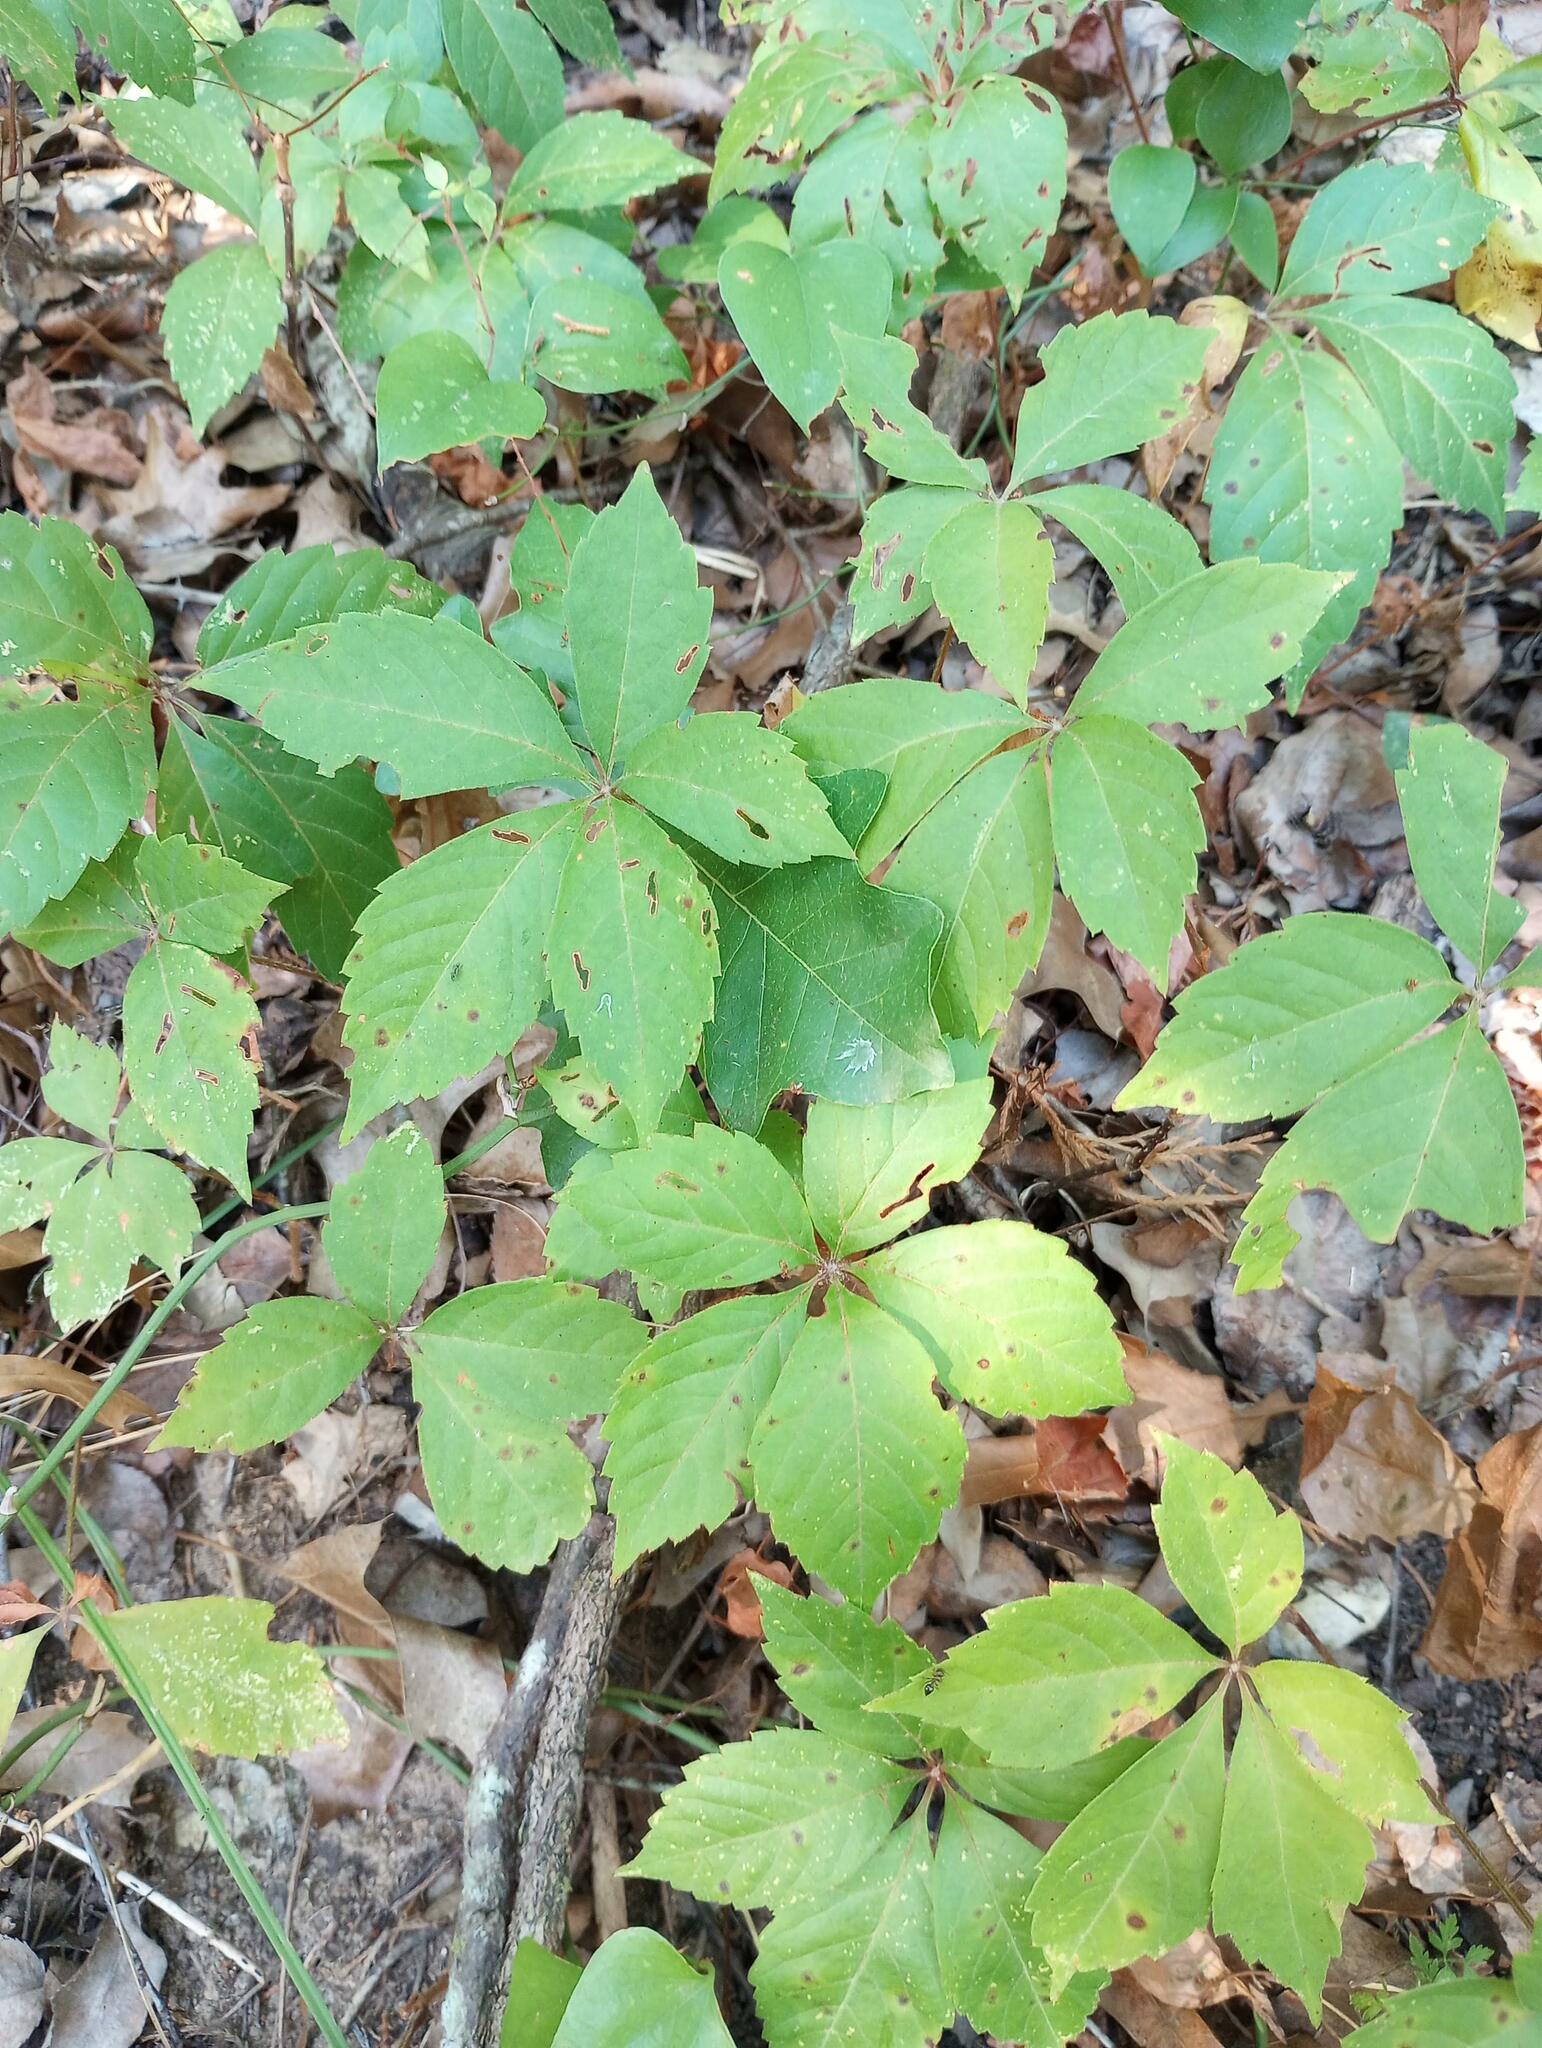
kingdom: Plantae
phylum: Tracheophyta
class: Magnoliopsida
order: Vitales
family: Vitaceae
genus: Parthenocissus
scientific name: Parthenocissus quinquefolia
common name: Virginia-creeper
